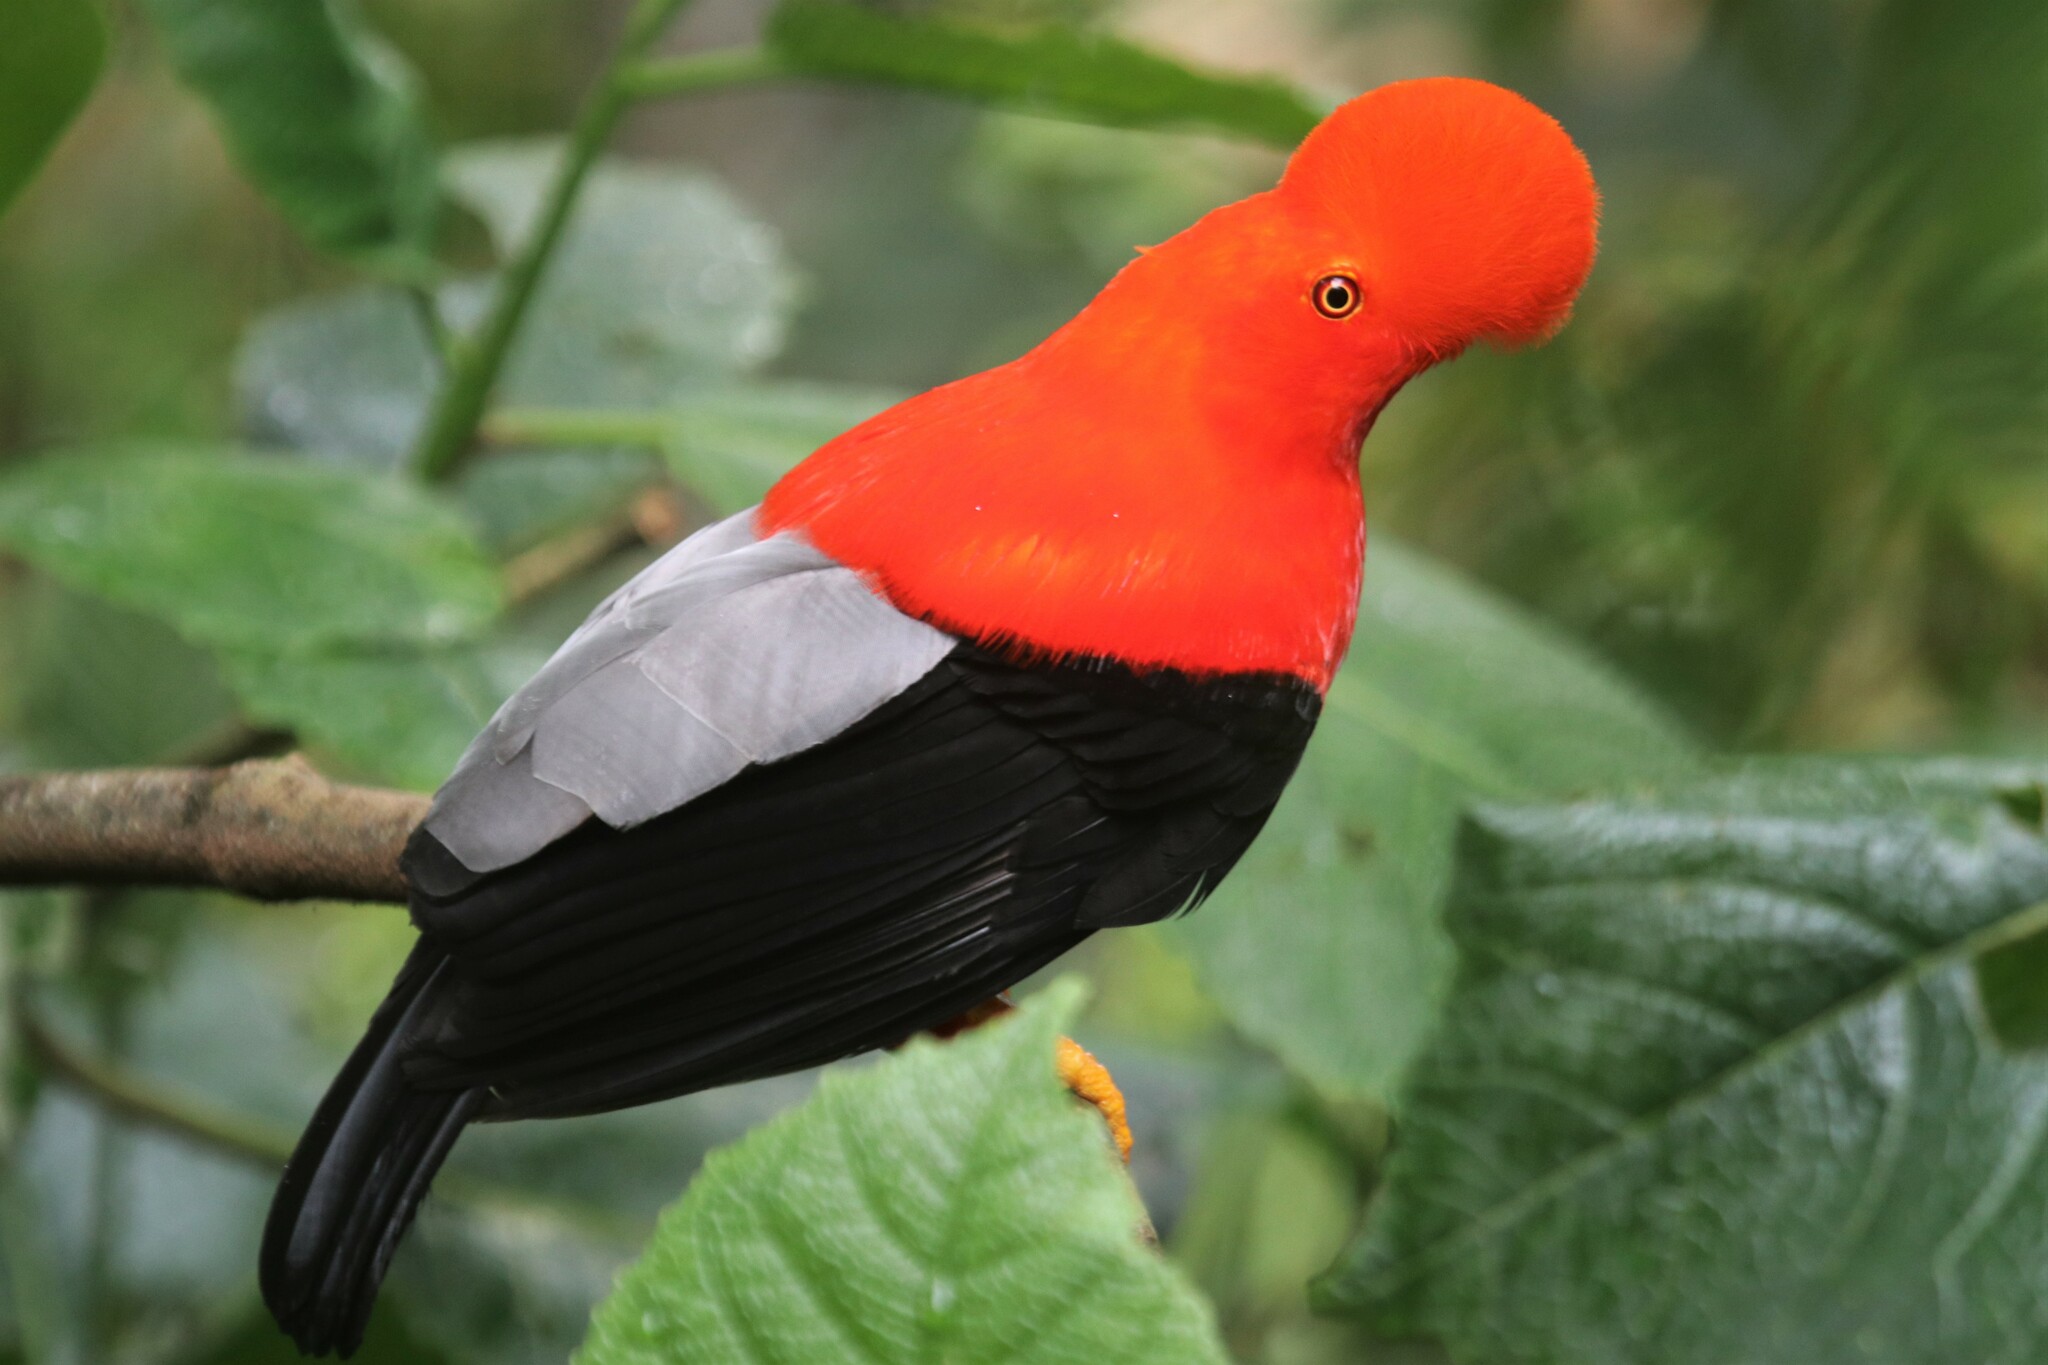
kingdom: Animalia
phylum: Chordata
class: Aves
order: Passeriformes
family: Cotingidae
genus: Rupicola
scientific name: Rupicola peruvianus
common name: Andean cock-of-the-rock
